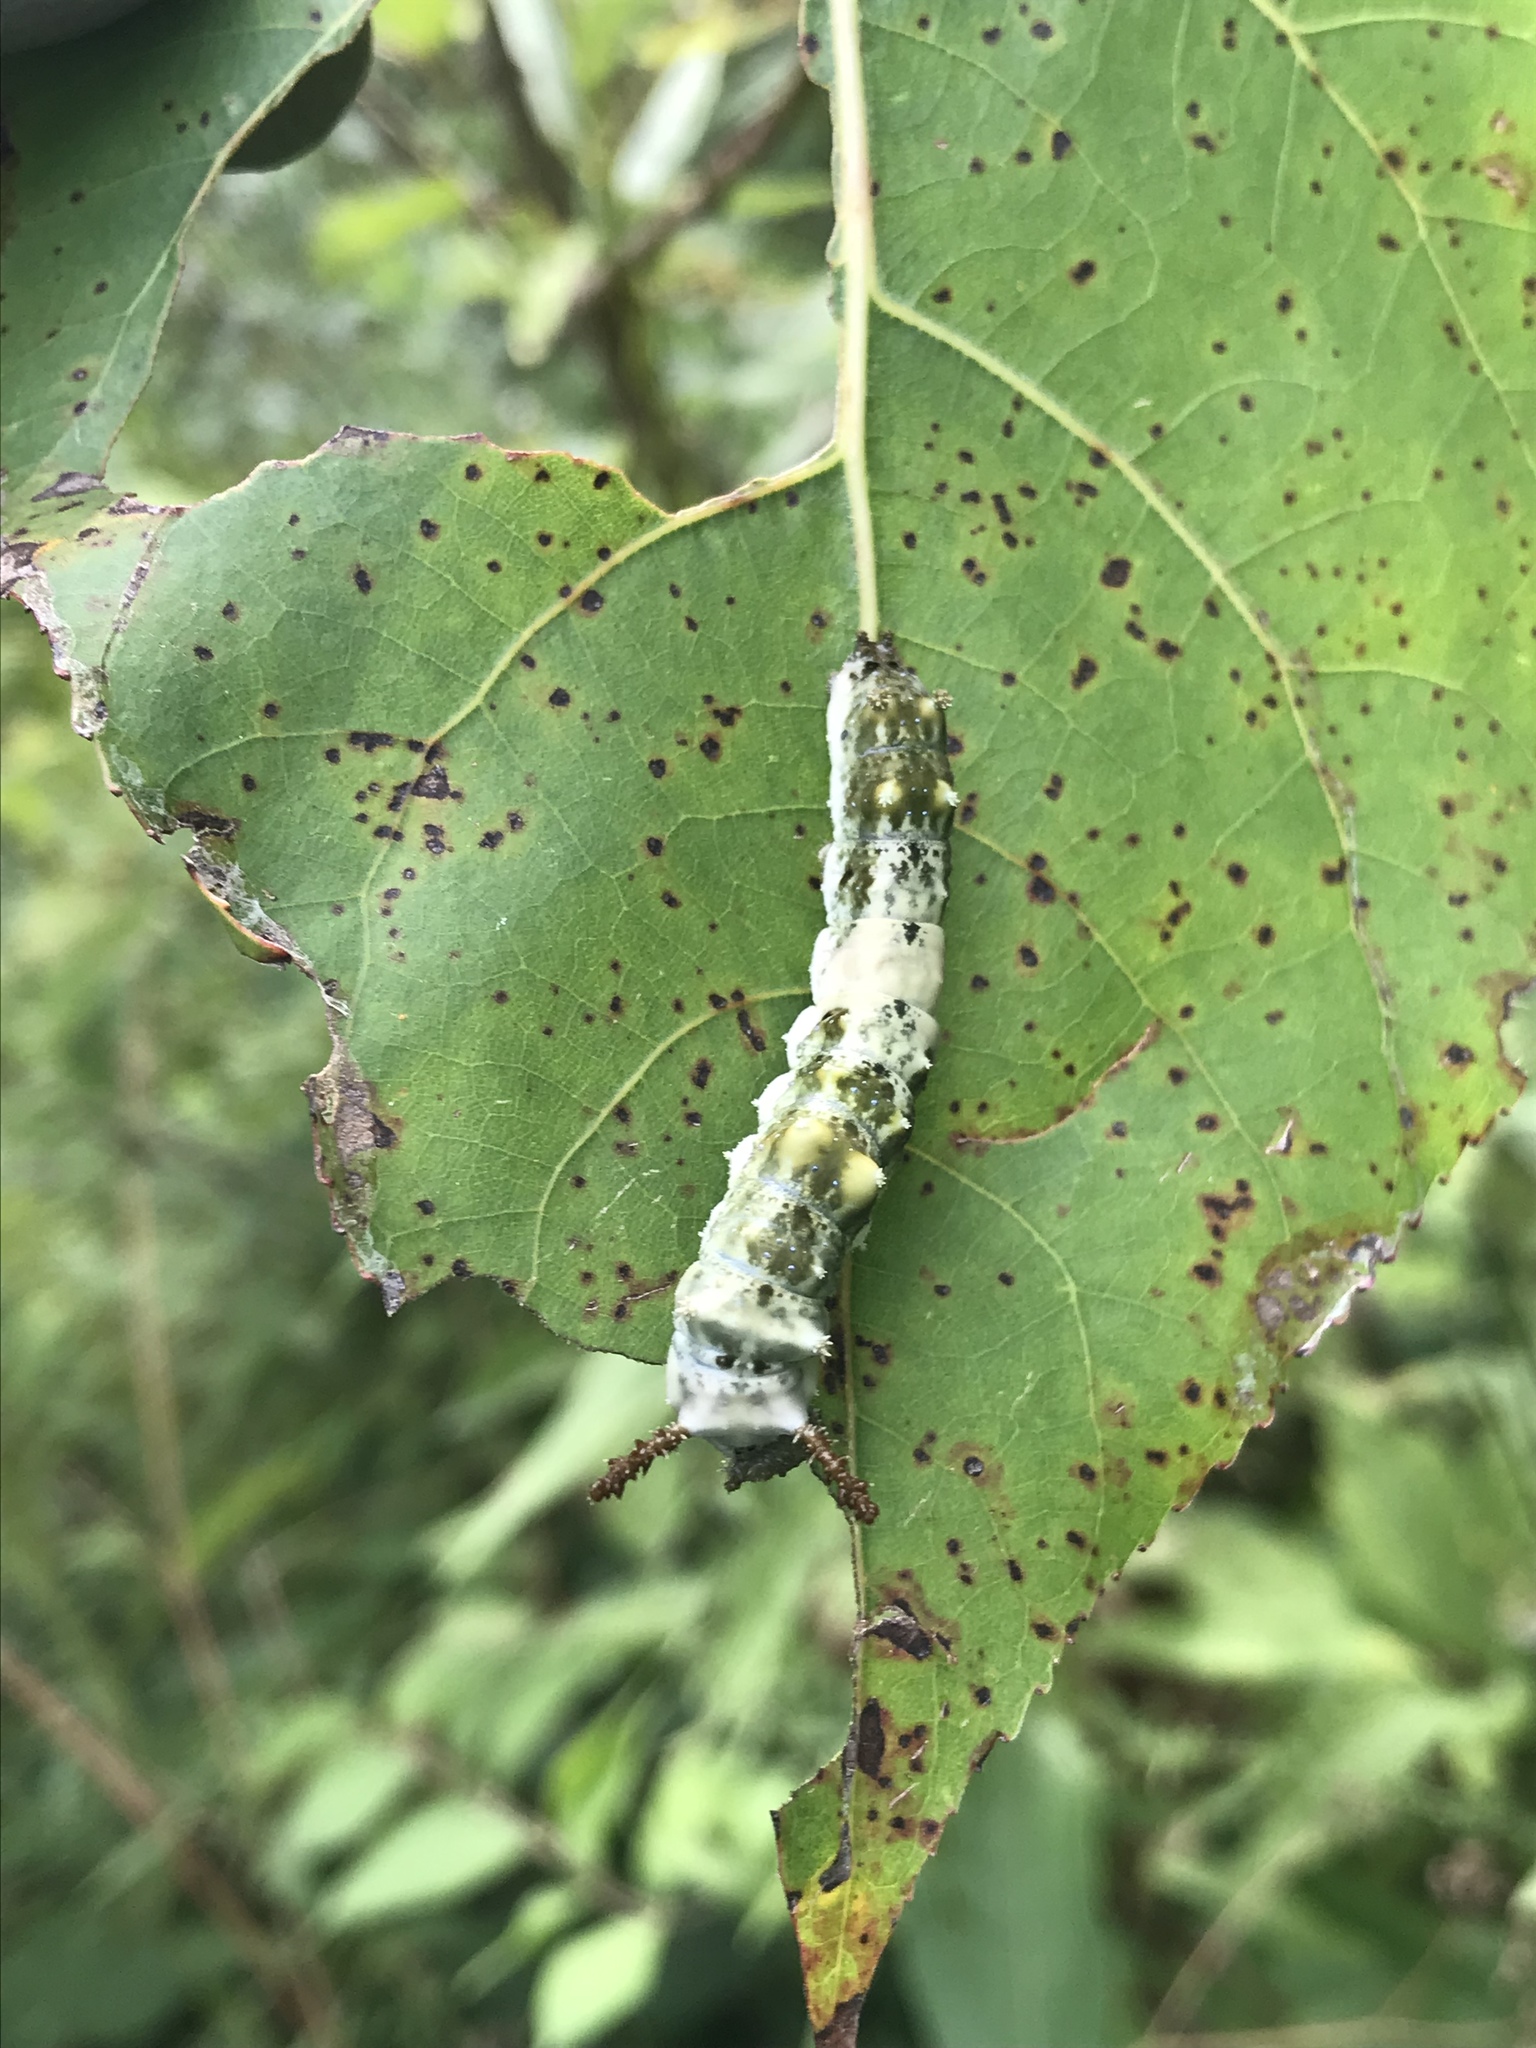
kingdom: Animalia
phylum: Arthropoda
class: Insecta
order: Lepidoptera
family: Nymphalidae
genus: Limenitis
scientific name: Limenitis archippus
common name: Viceroy
